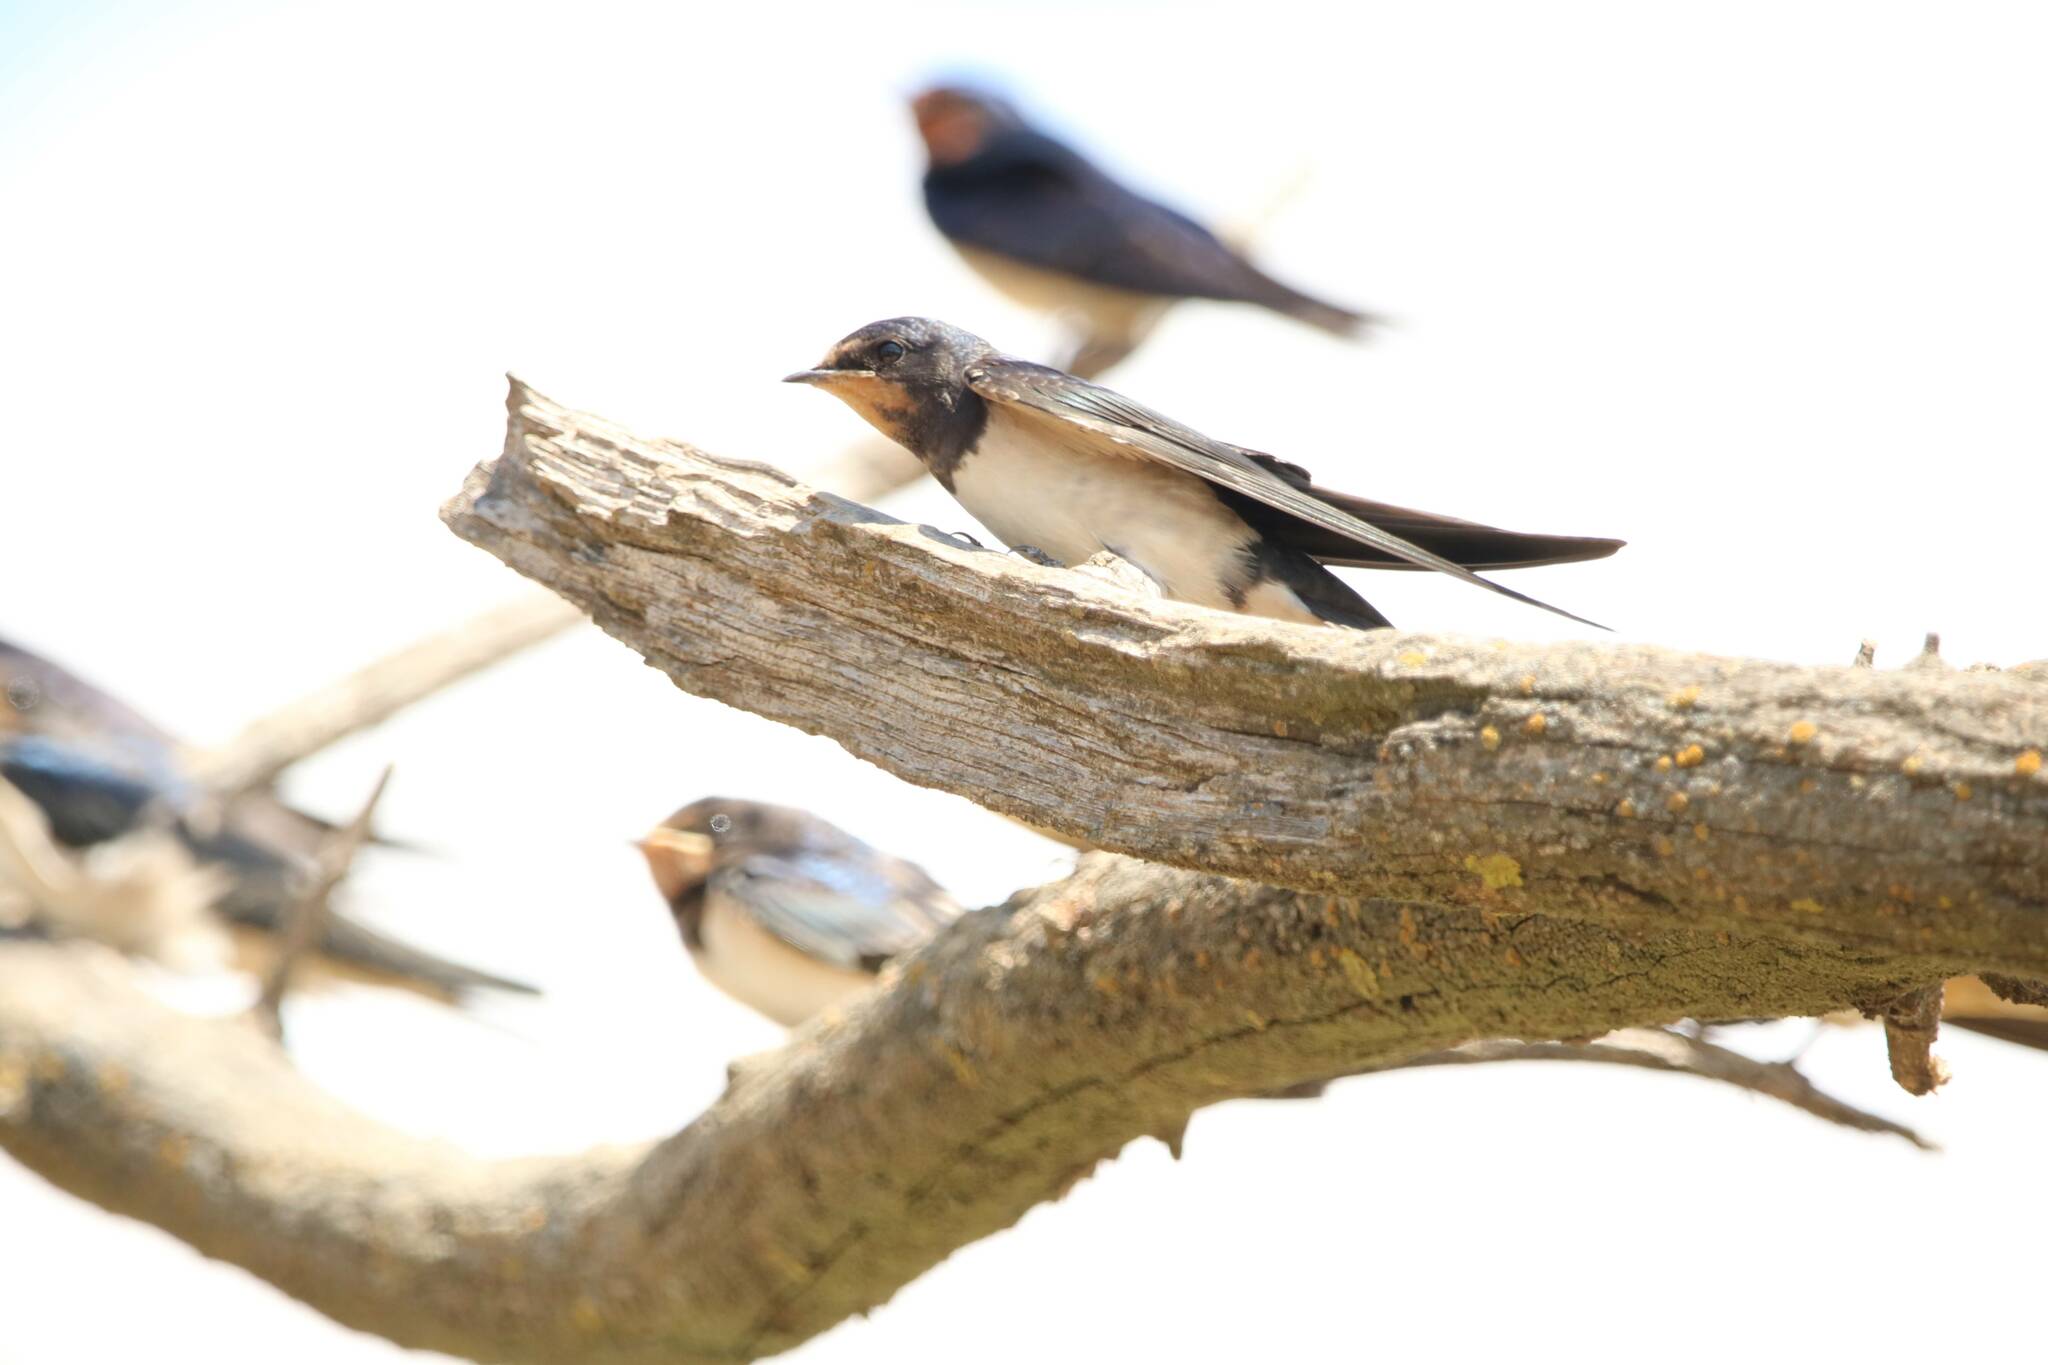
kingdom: Animalia
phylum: Chordata
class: Aves
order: Passeriformes
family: Hirundinidae
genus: Hirundo
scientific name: Hirundo rustica
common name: Barn swallow
